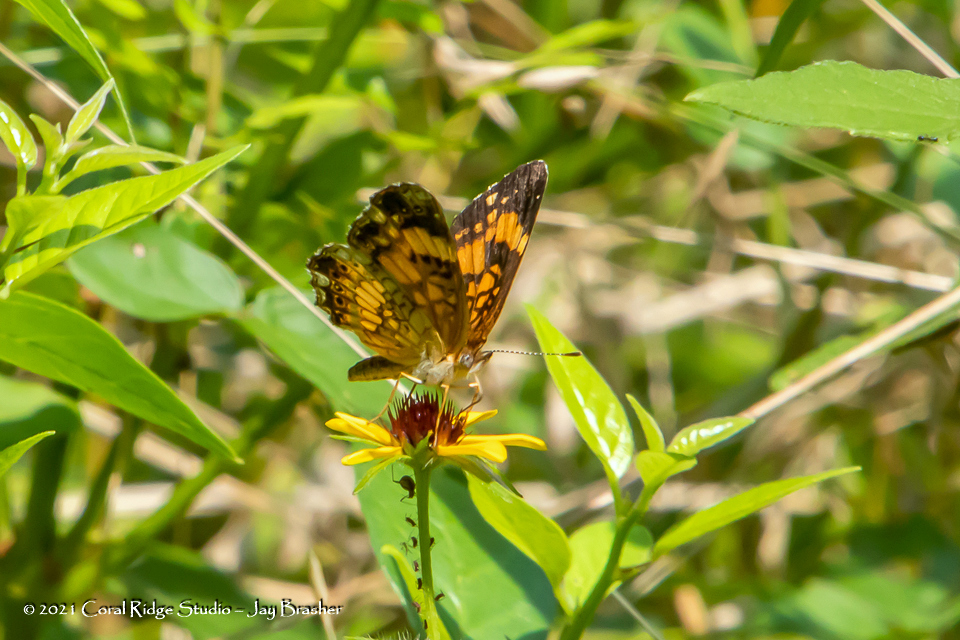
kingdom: Animalia
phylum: Arthropoda
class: Insecta
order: Lepidoptera
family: Nymphalidae
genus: Chlosyne
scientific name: Chlosyne nycteis
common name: Silvery checkerspot
